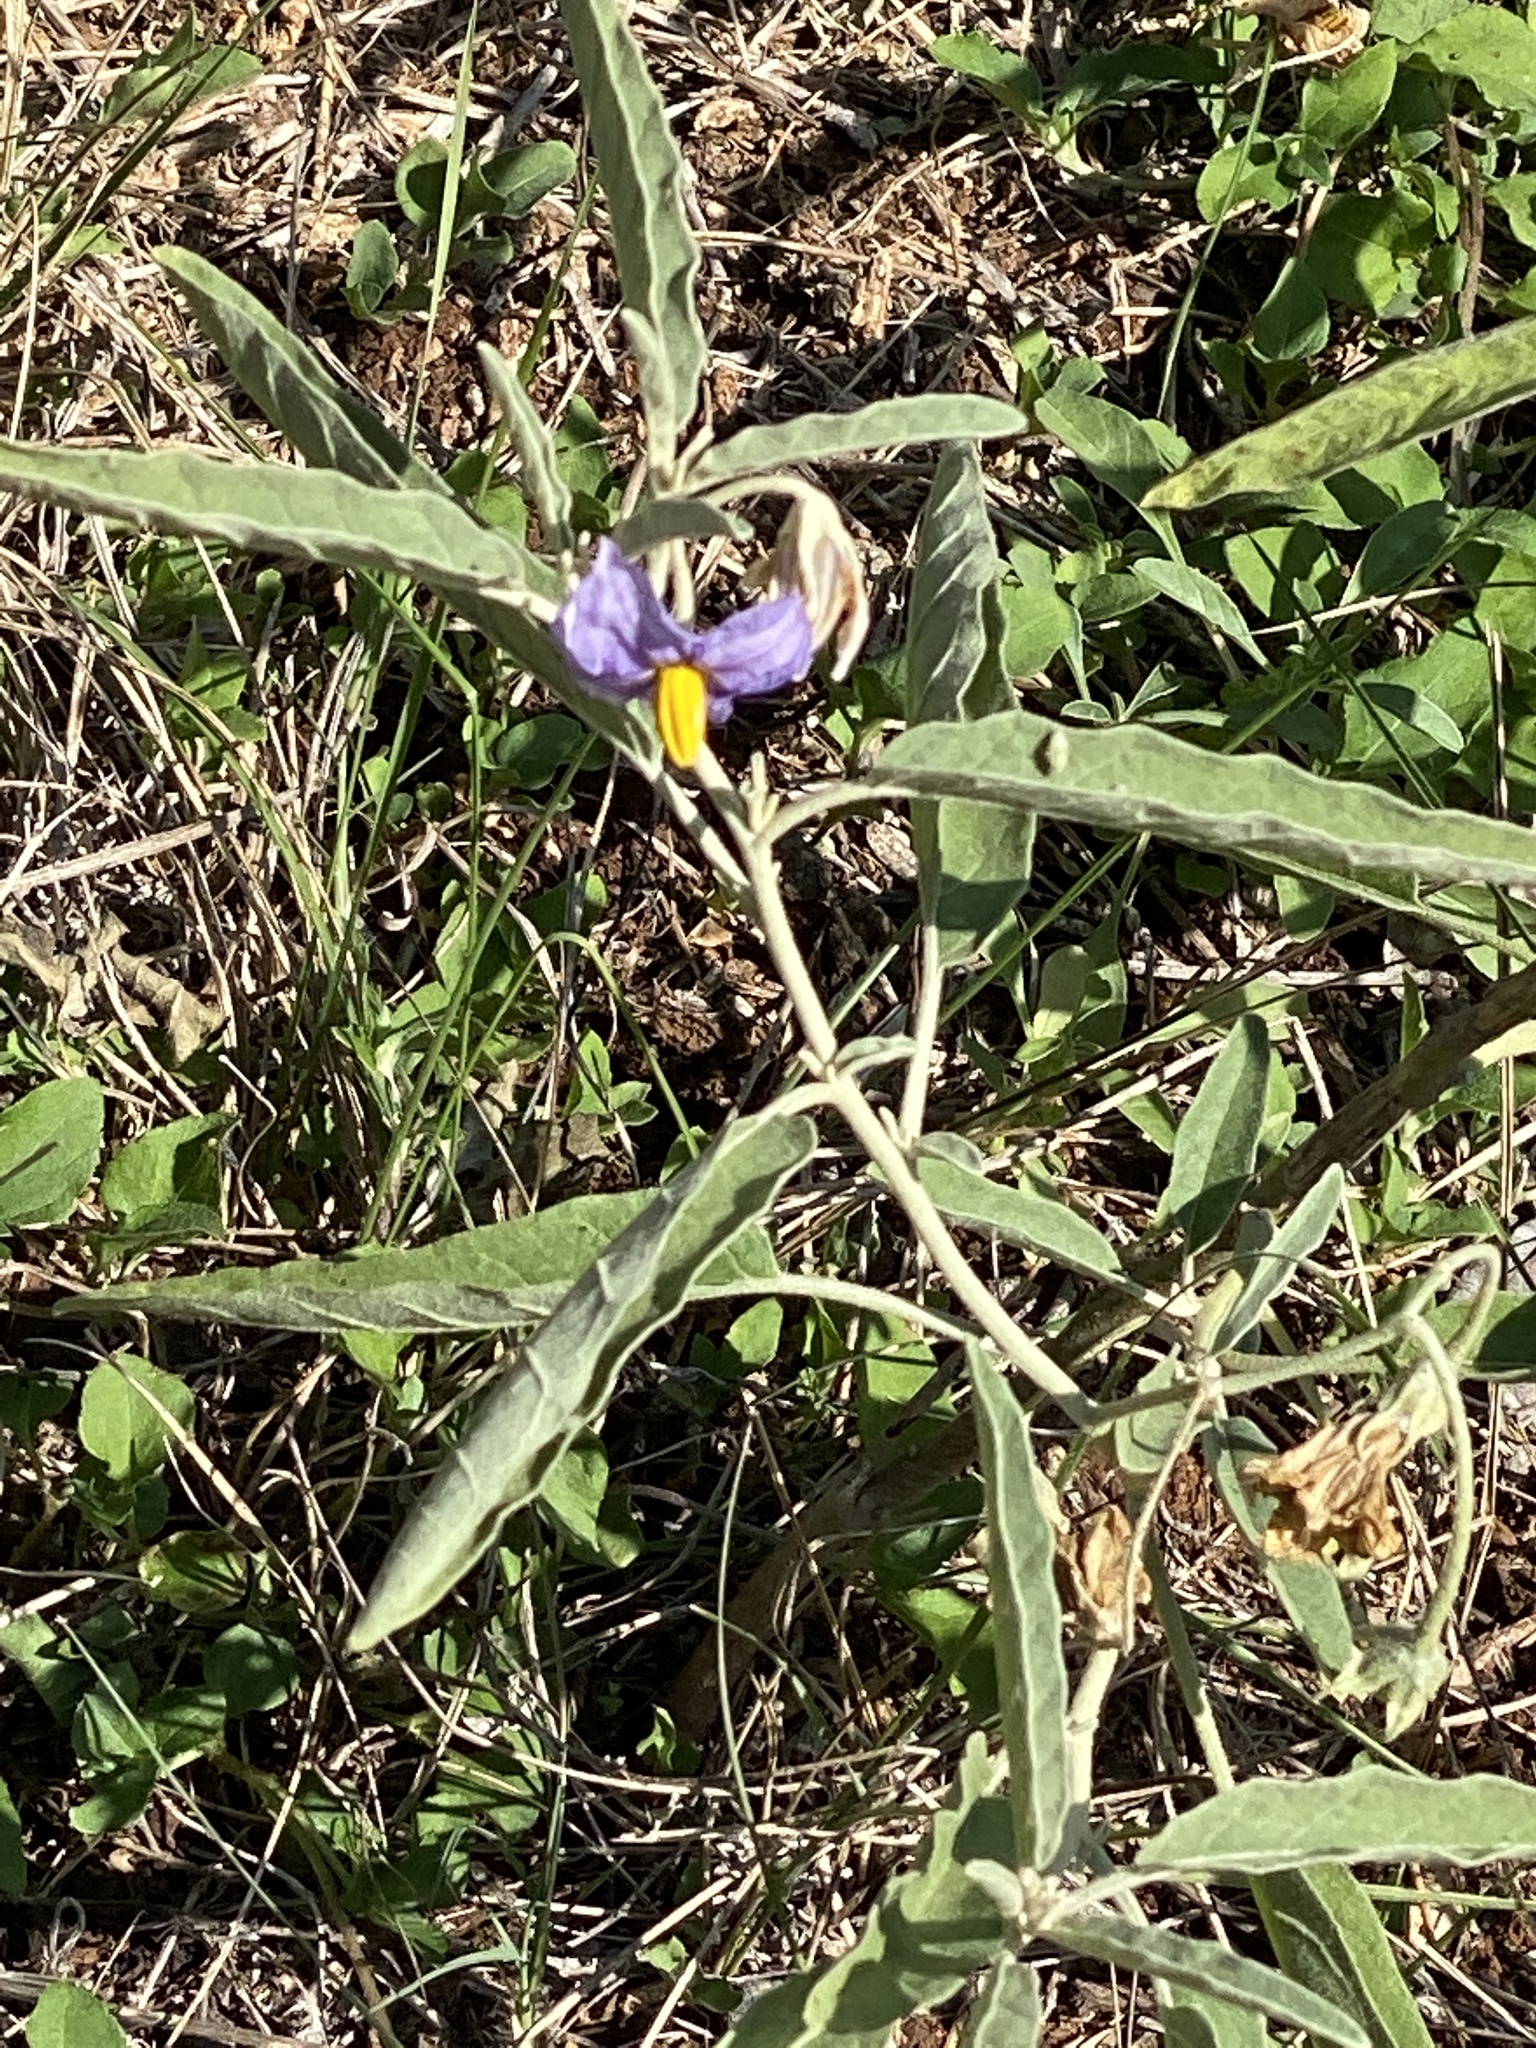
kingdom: Plantae
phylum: Tracheophyta
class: Magnoliopsida
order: Solanales
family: Solanaceae
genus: Solanum
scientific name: Solanum elaeagnifolium
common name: Silverleaf nightshade
